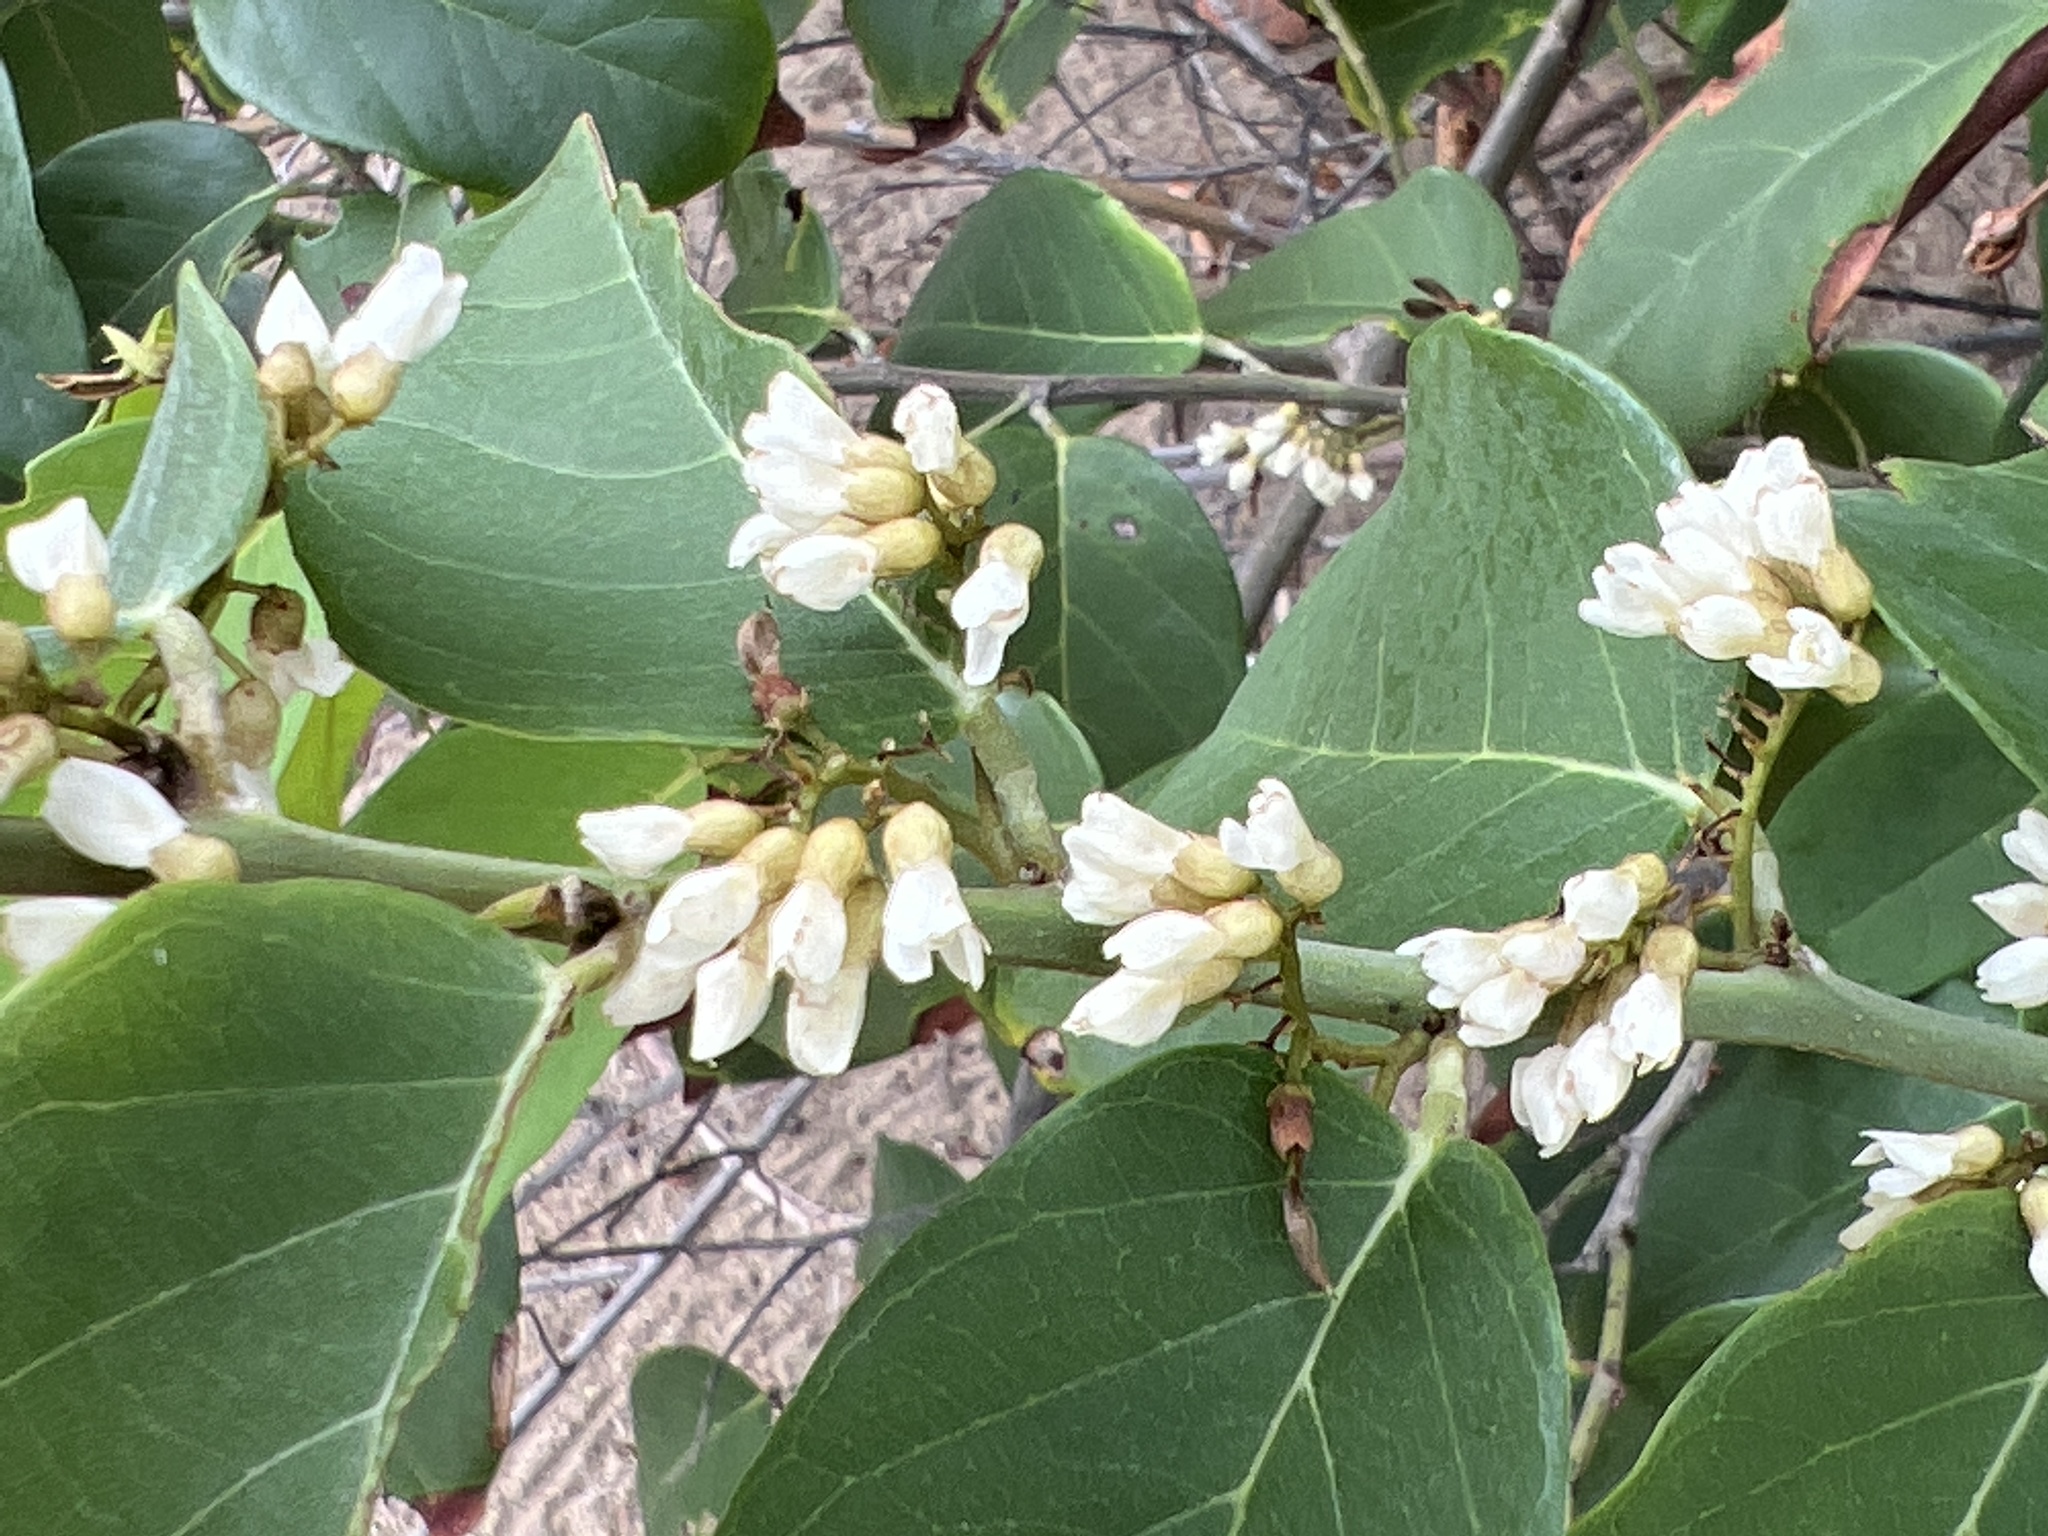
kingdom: Plantae
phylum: Tracheophyta
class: Magnoliopsida
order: Fabales
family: Fabaceae
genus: Dalbergia
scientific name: Dalbergia ecastaphyllum
